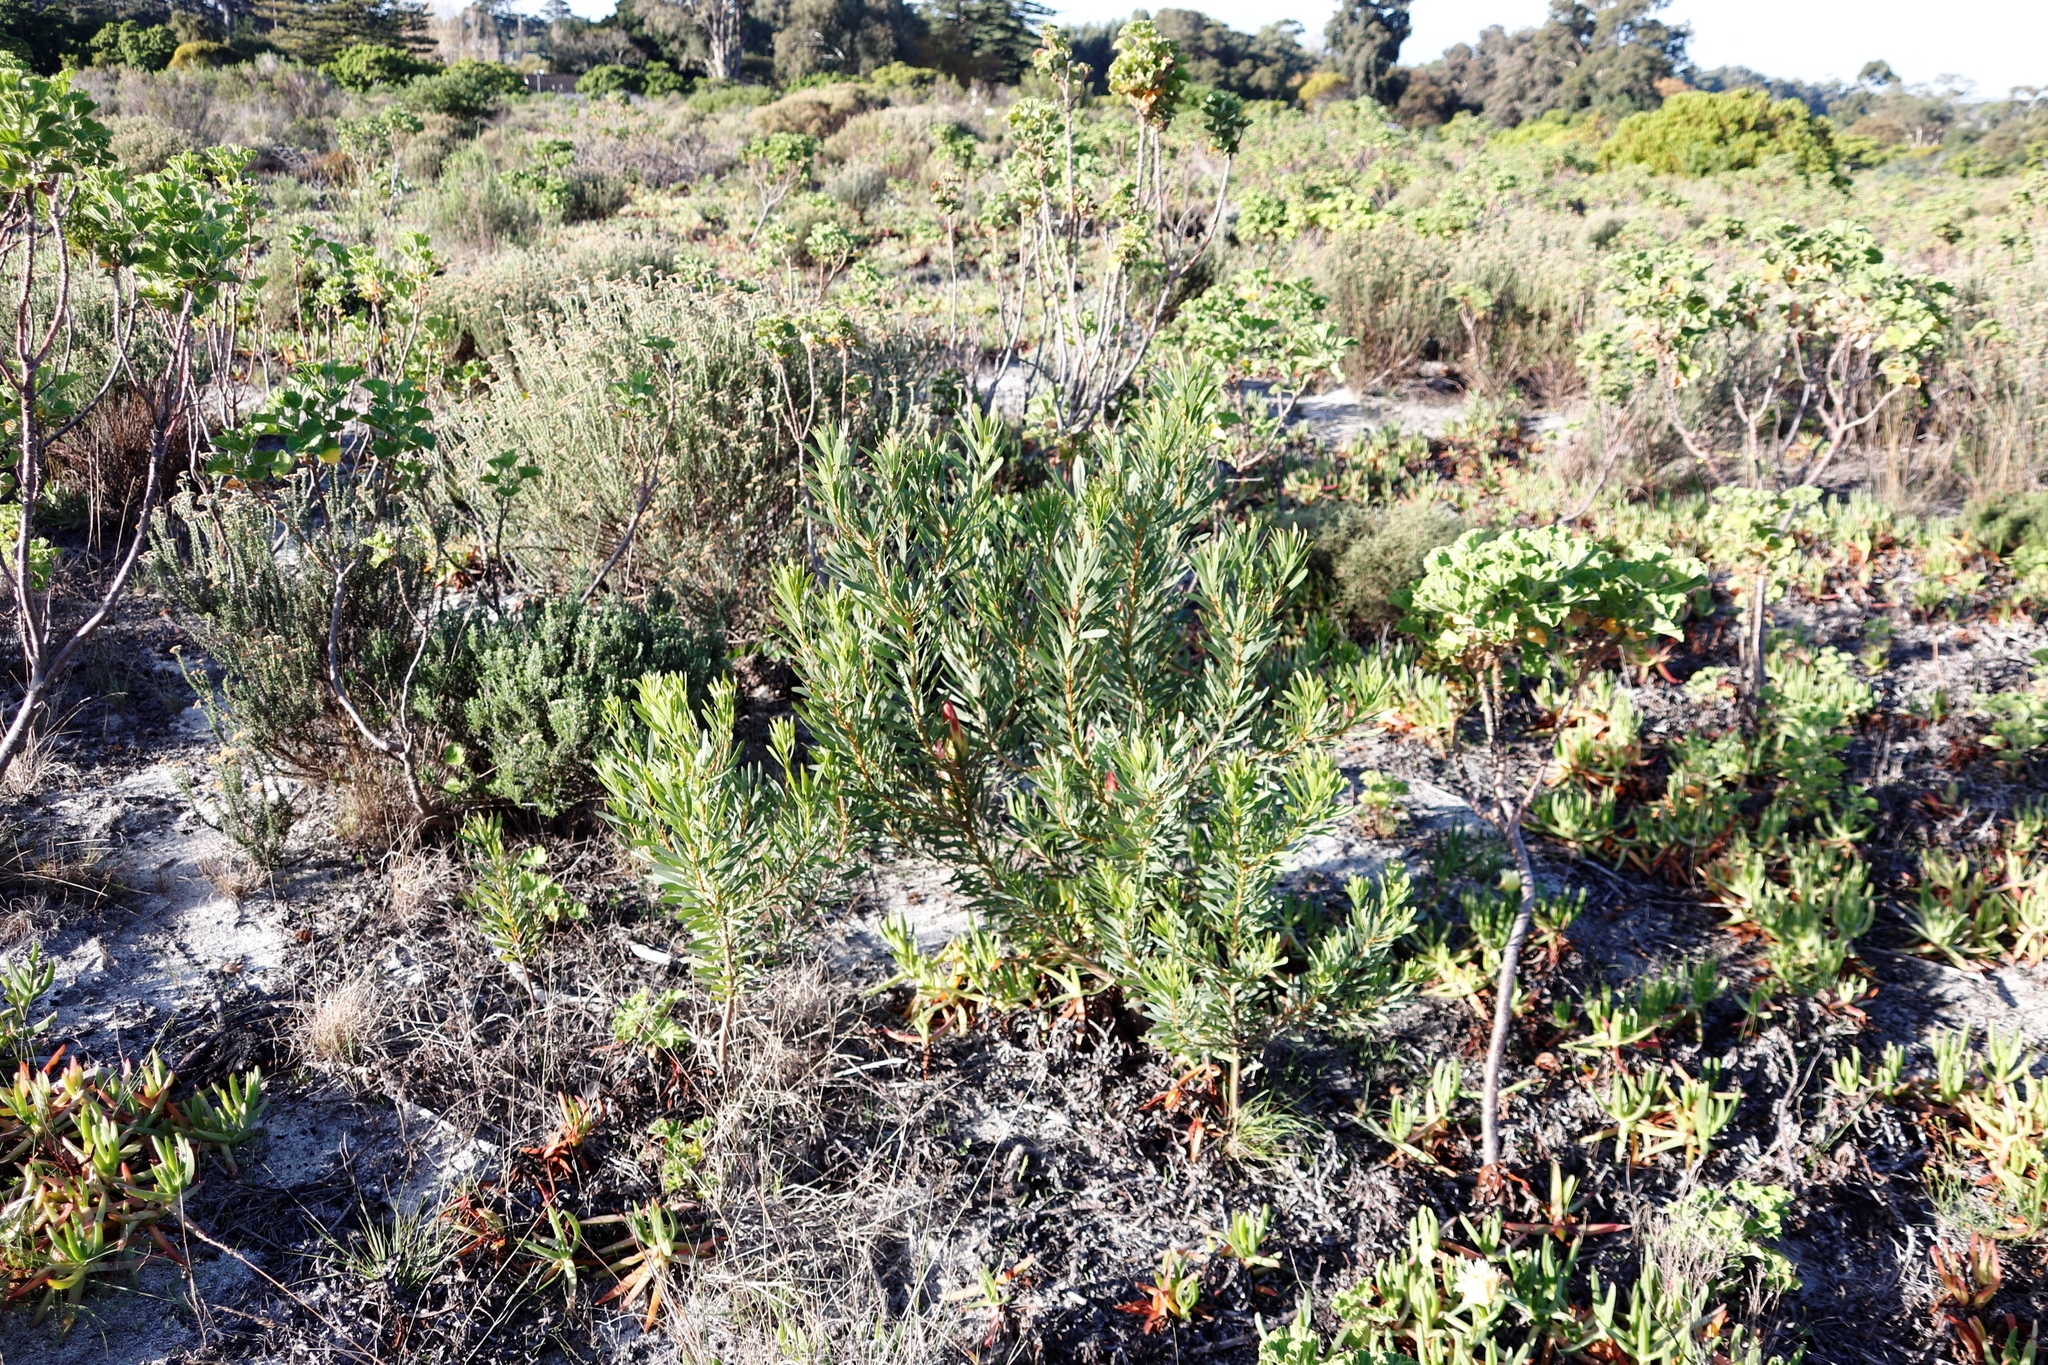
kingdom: Plantae
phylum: Tracheophyta
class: Magnoliopsida
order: Proteales
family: Proteaceae
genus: Protea
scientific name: Protea repens
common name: Sugarbush
